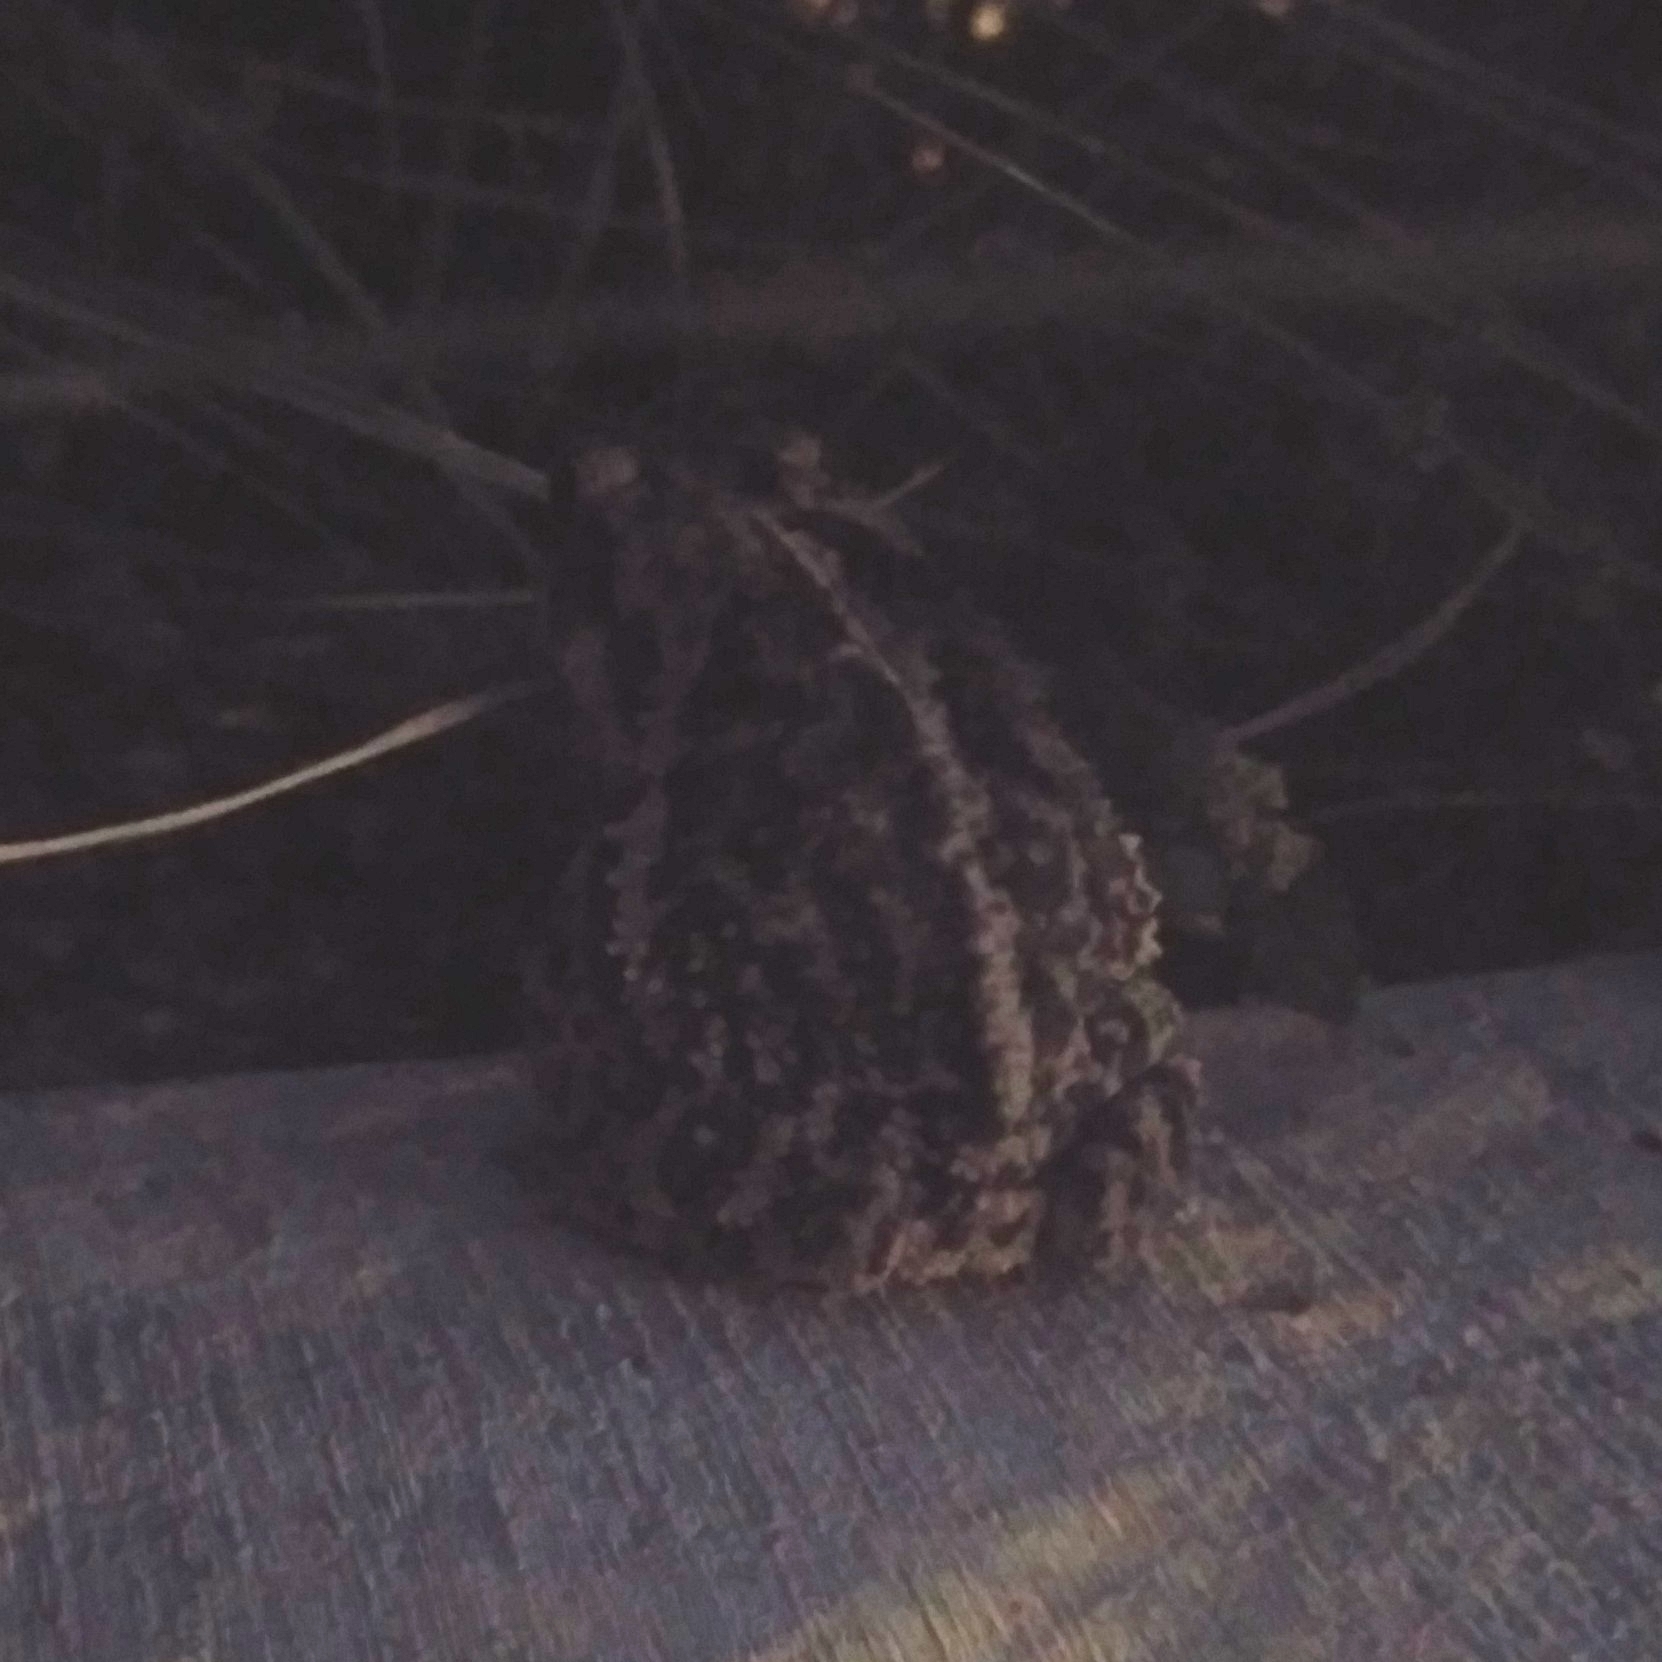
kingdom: Animalia
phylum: Chordata
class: Amphibia
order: Anura
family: Bufonidae
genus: Incilius
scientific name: Incilius nebulifer
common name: Gulf coast toad
